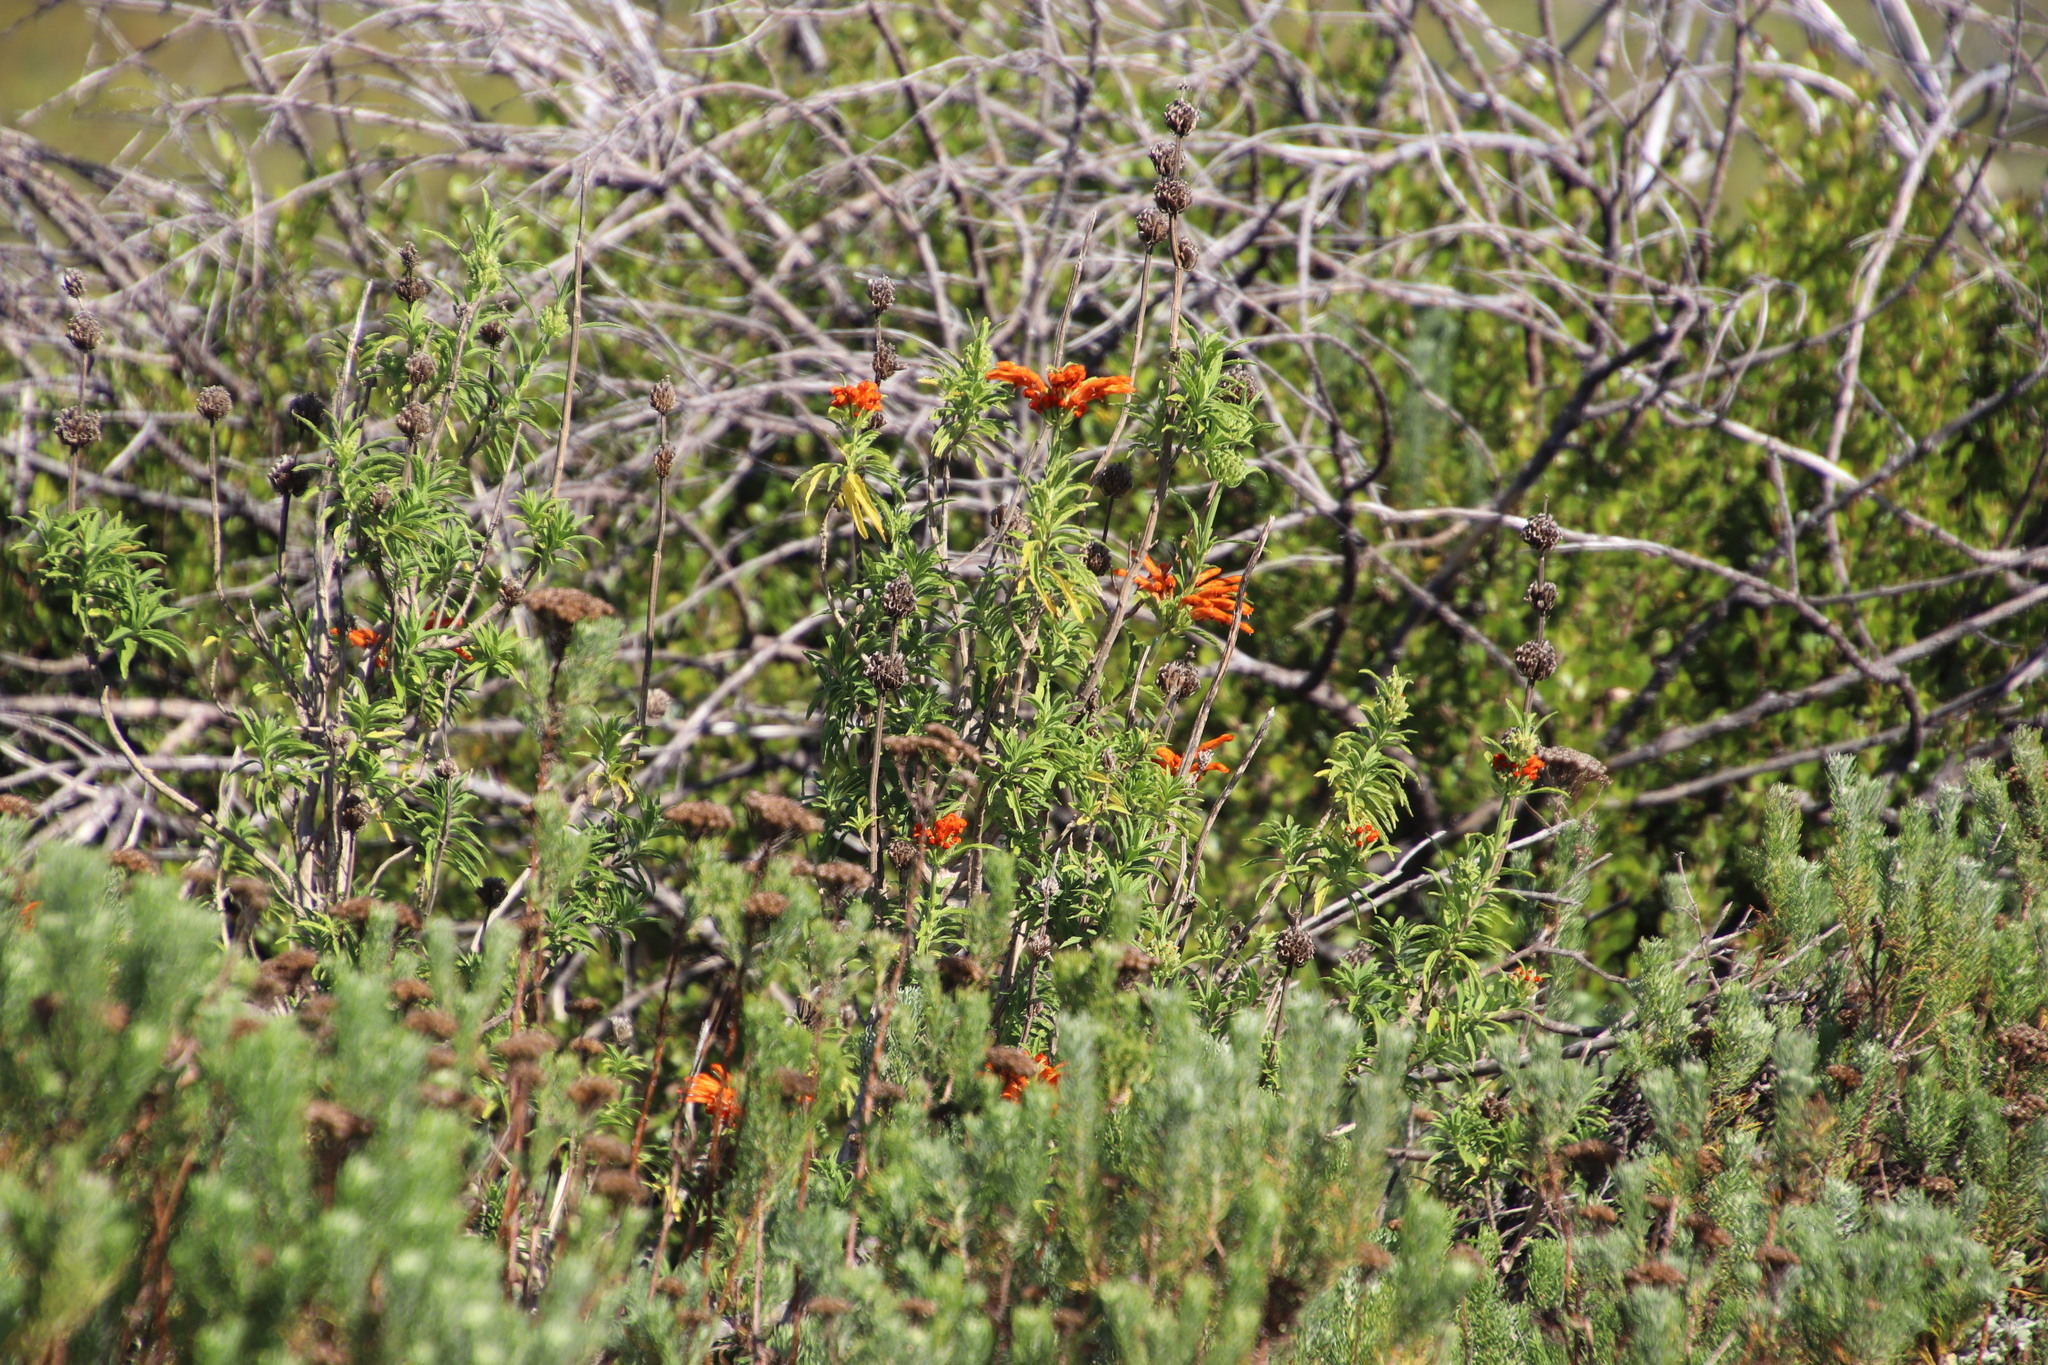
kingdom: Plantae
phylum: Tracheophyta
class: Magnoliopsida
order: Lamiales
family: Lamiaceae
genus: Leonotis
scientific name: Leonotis leonurus
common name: Lion's ear
